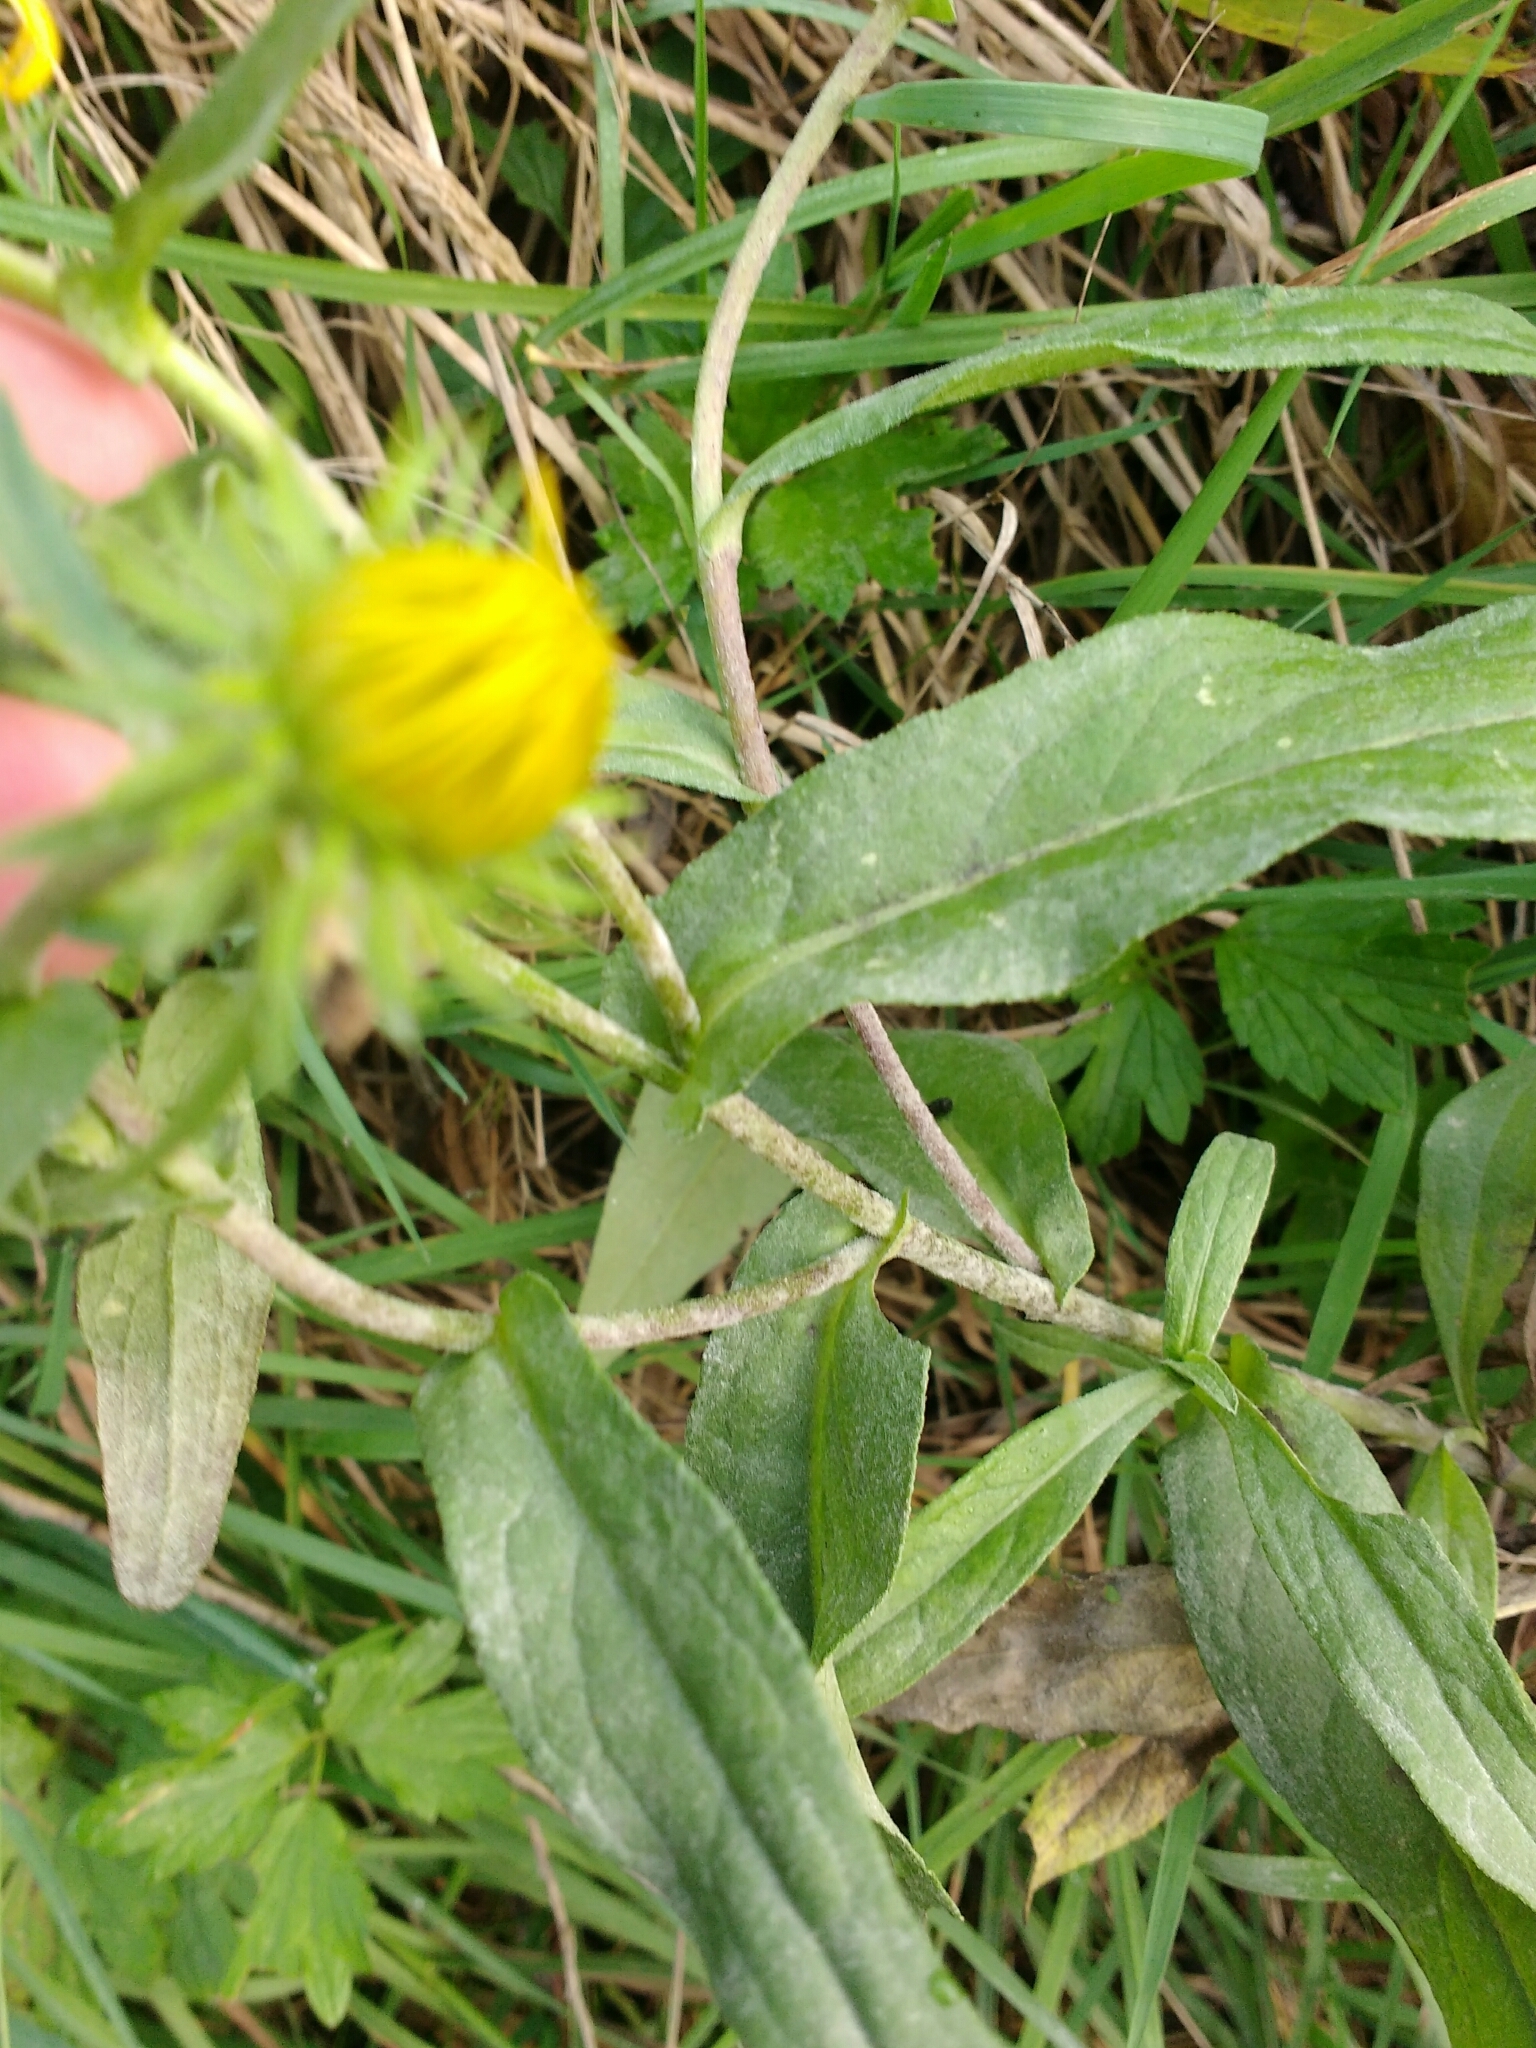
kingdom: Plantae
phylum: Tracheophyta
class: Magnoliopsida
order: Asterales
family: Asteraceae
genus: Pentanema
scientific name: Pentanema britannicum
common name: British elecampane
